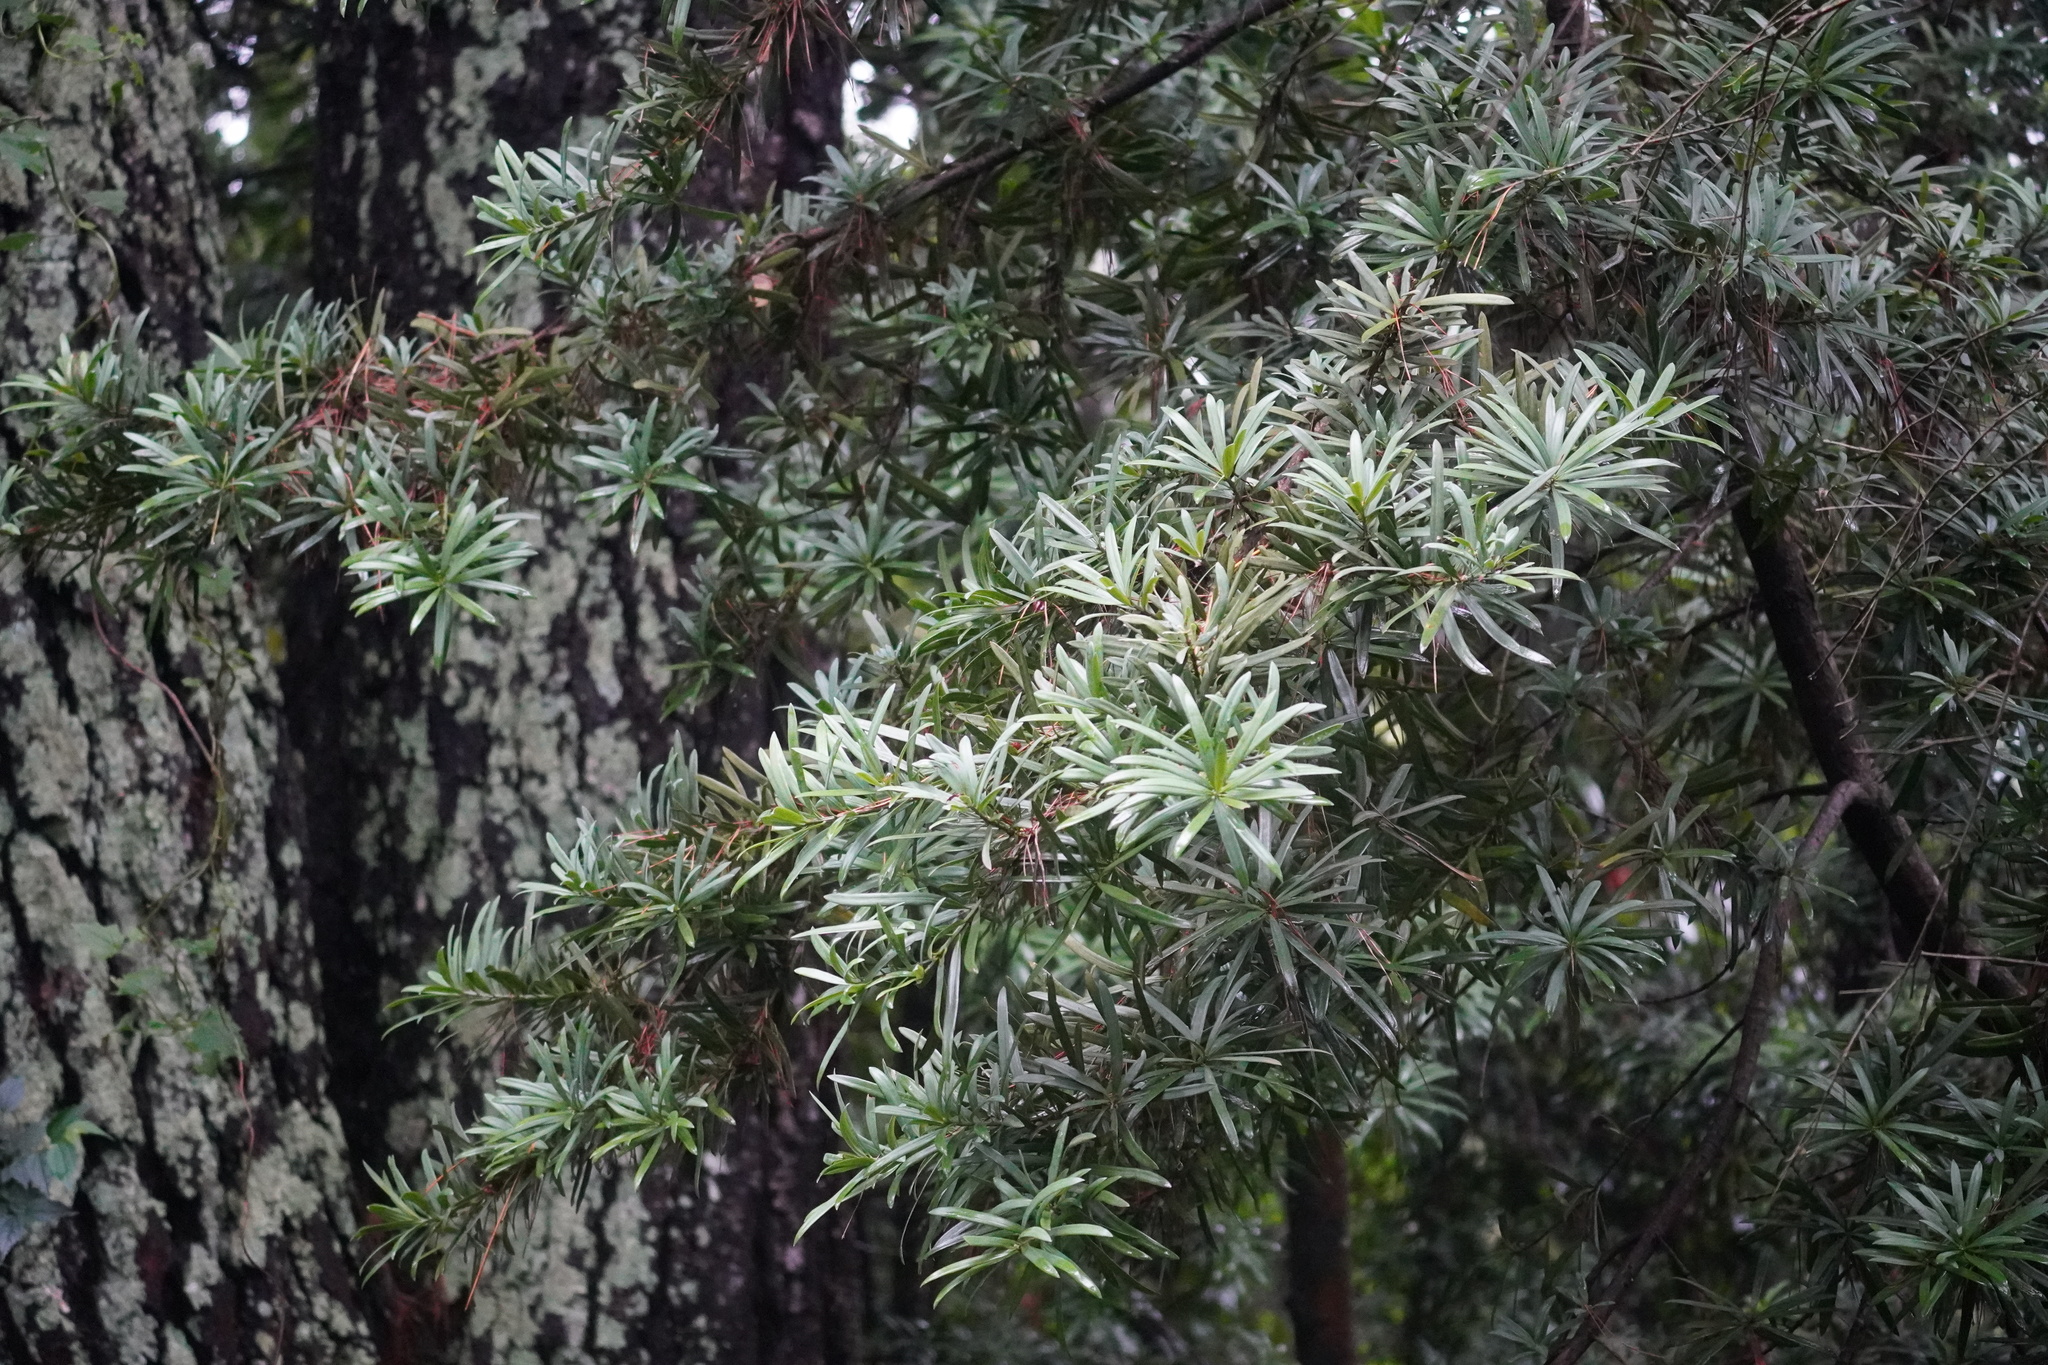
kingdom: Plantae
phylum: Tracheophyta
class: Pinopsida
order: Pinales
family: Podocarpaceae
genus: Podocarpus
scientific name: Podocarpus latifolius
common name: True yellowwood
